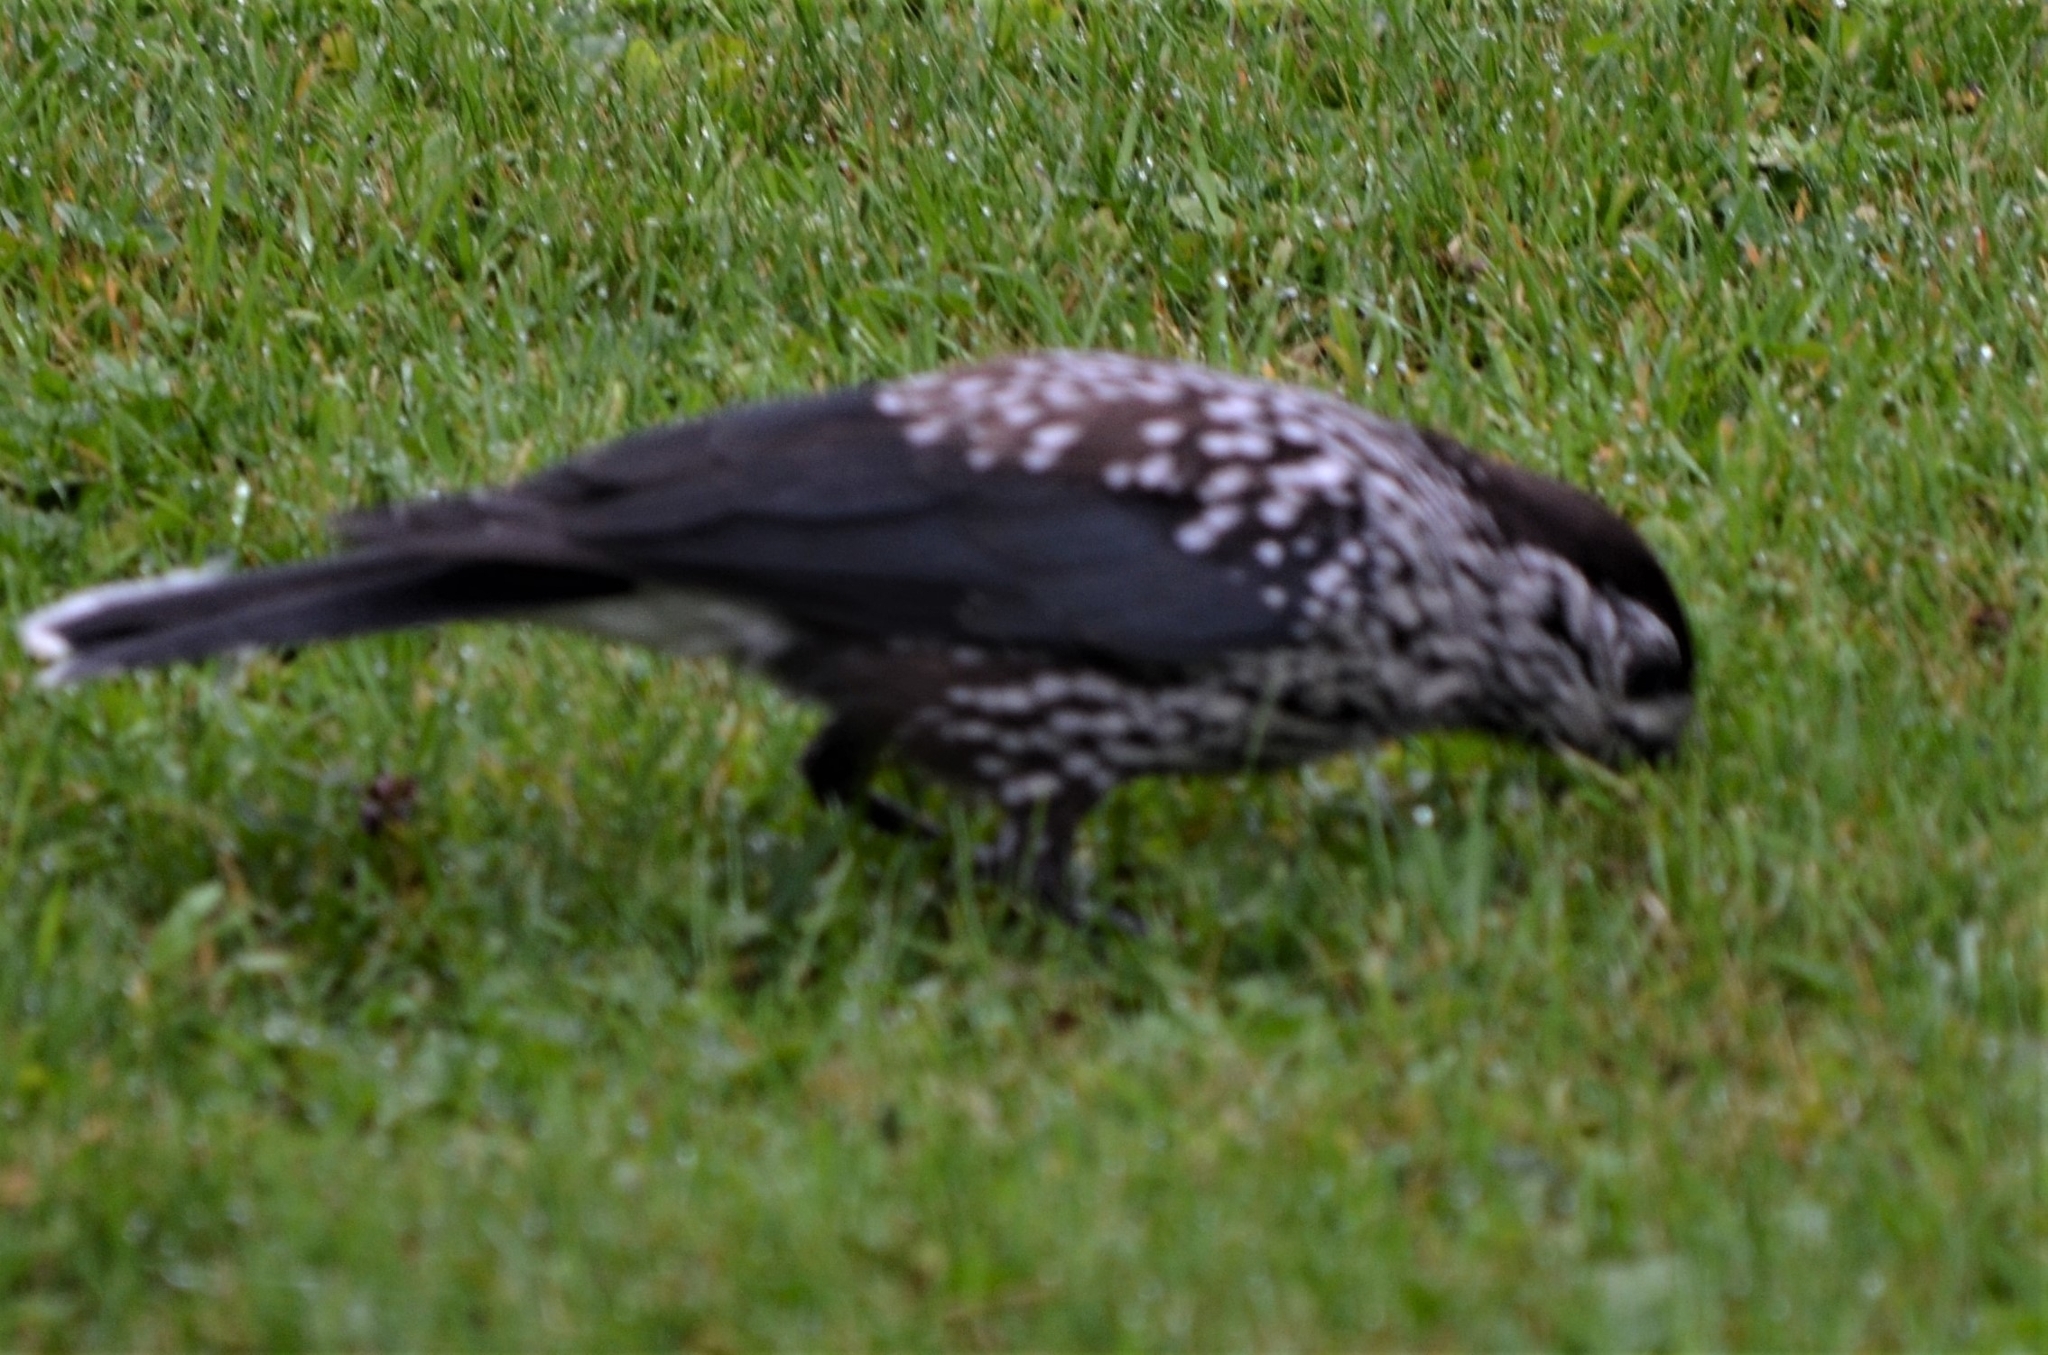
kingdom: Animalia
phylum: Chordata
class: Aves
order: Passeriformes
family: Corvidae
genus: Nucifraga
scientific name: Nucifraga caryocatactes
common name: Spotted nutcracker
